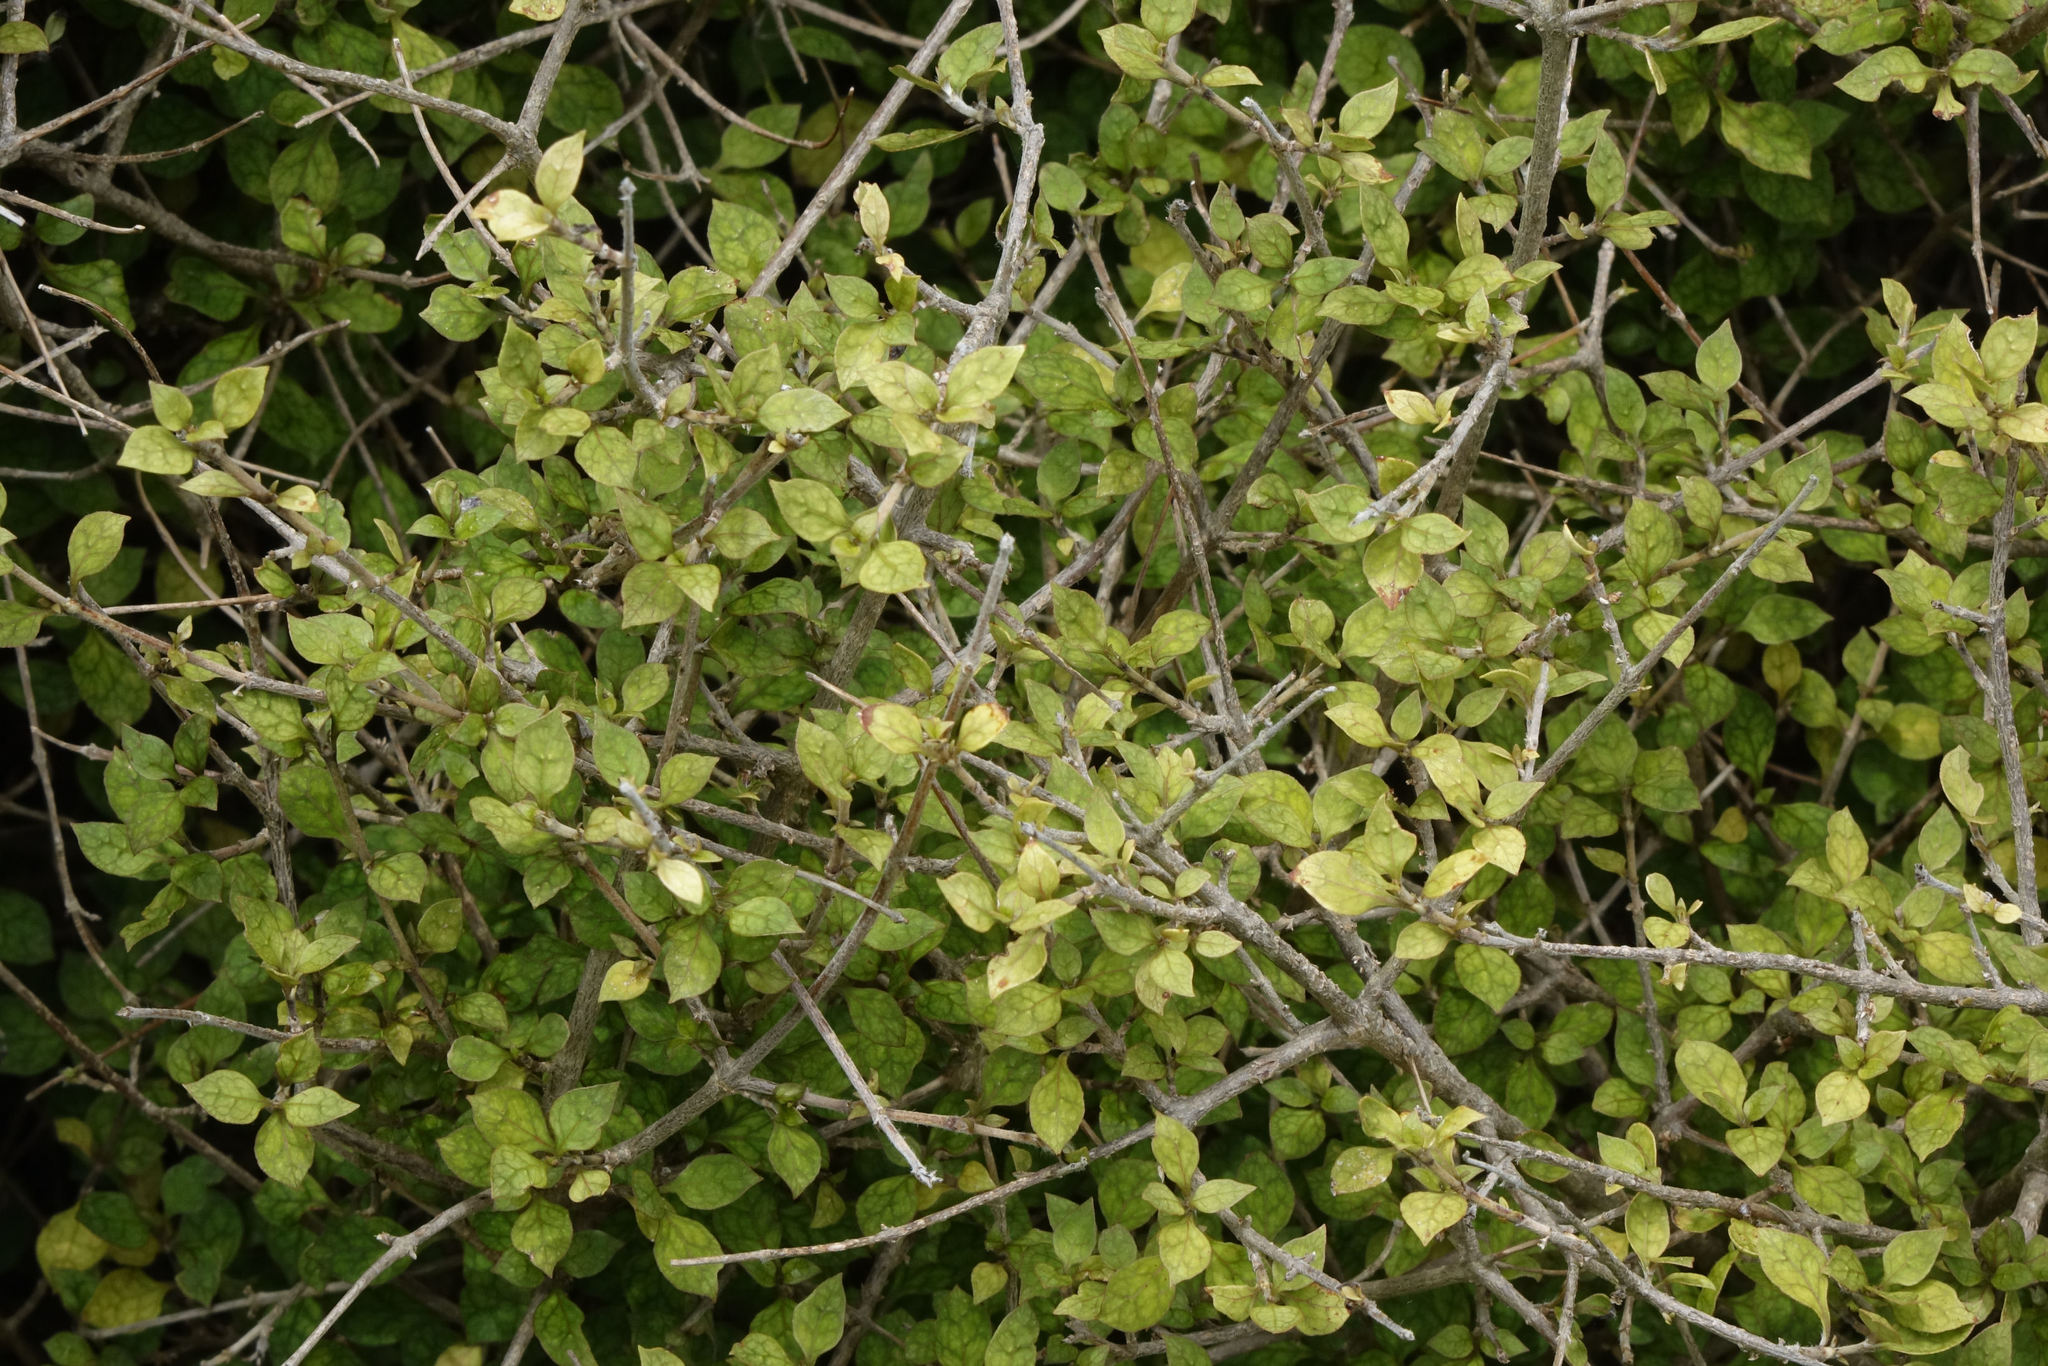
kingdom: Plantae
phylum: Tracheophyta
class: Magnoliopsida
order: Gentianales
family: Rubiaceae
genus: Coprosma
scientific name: Coprosma areolata
